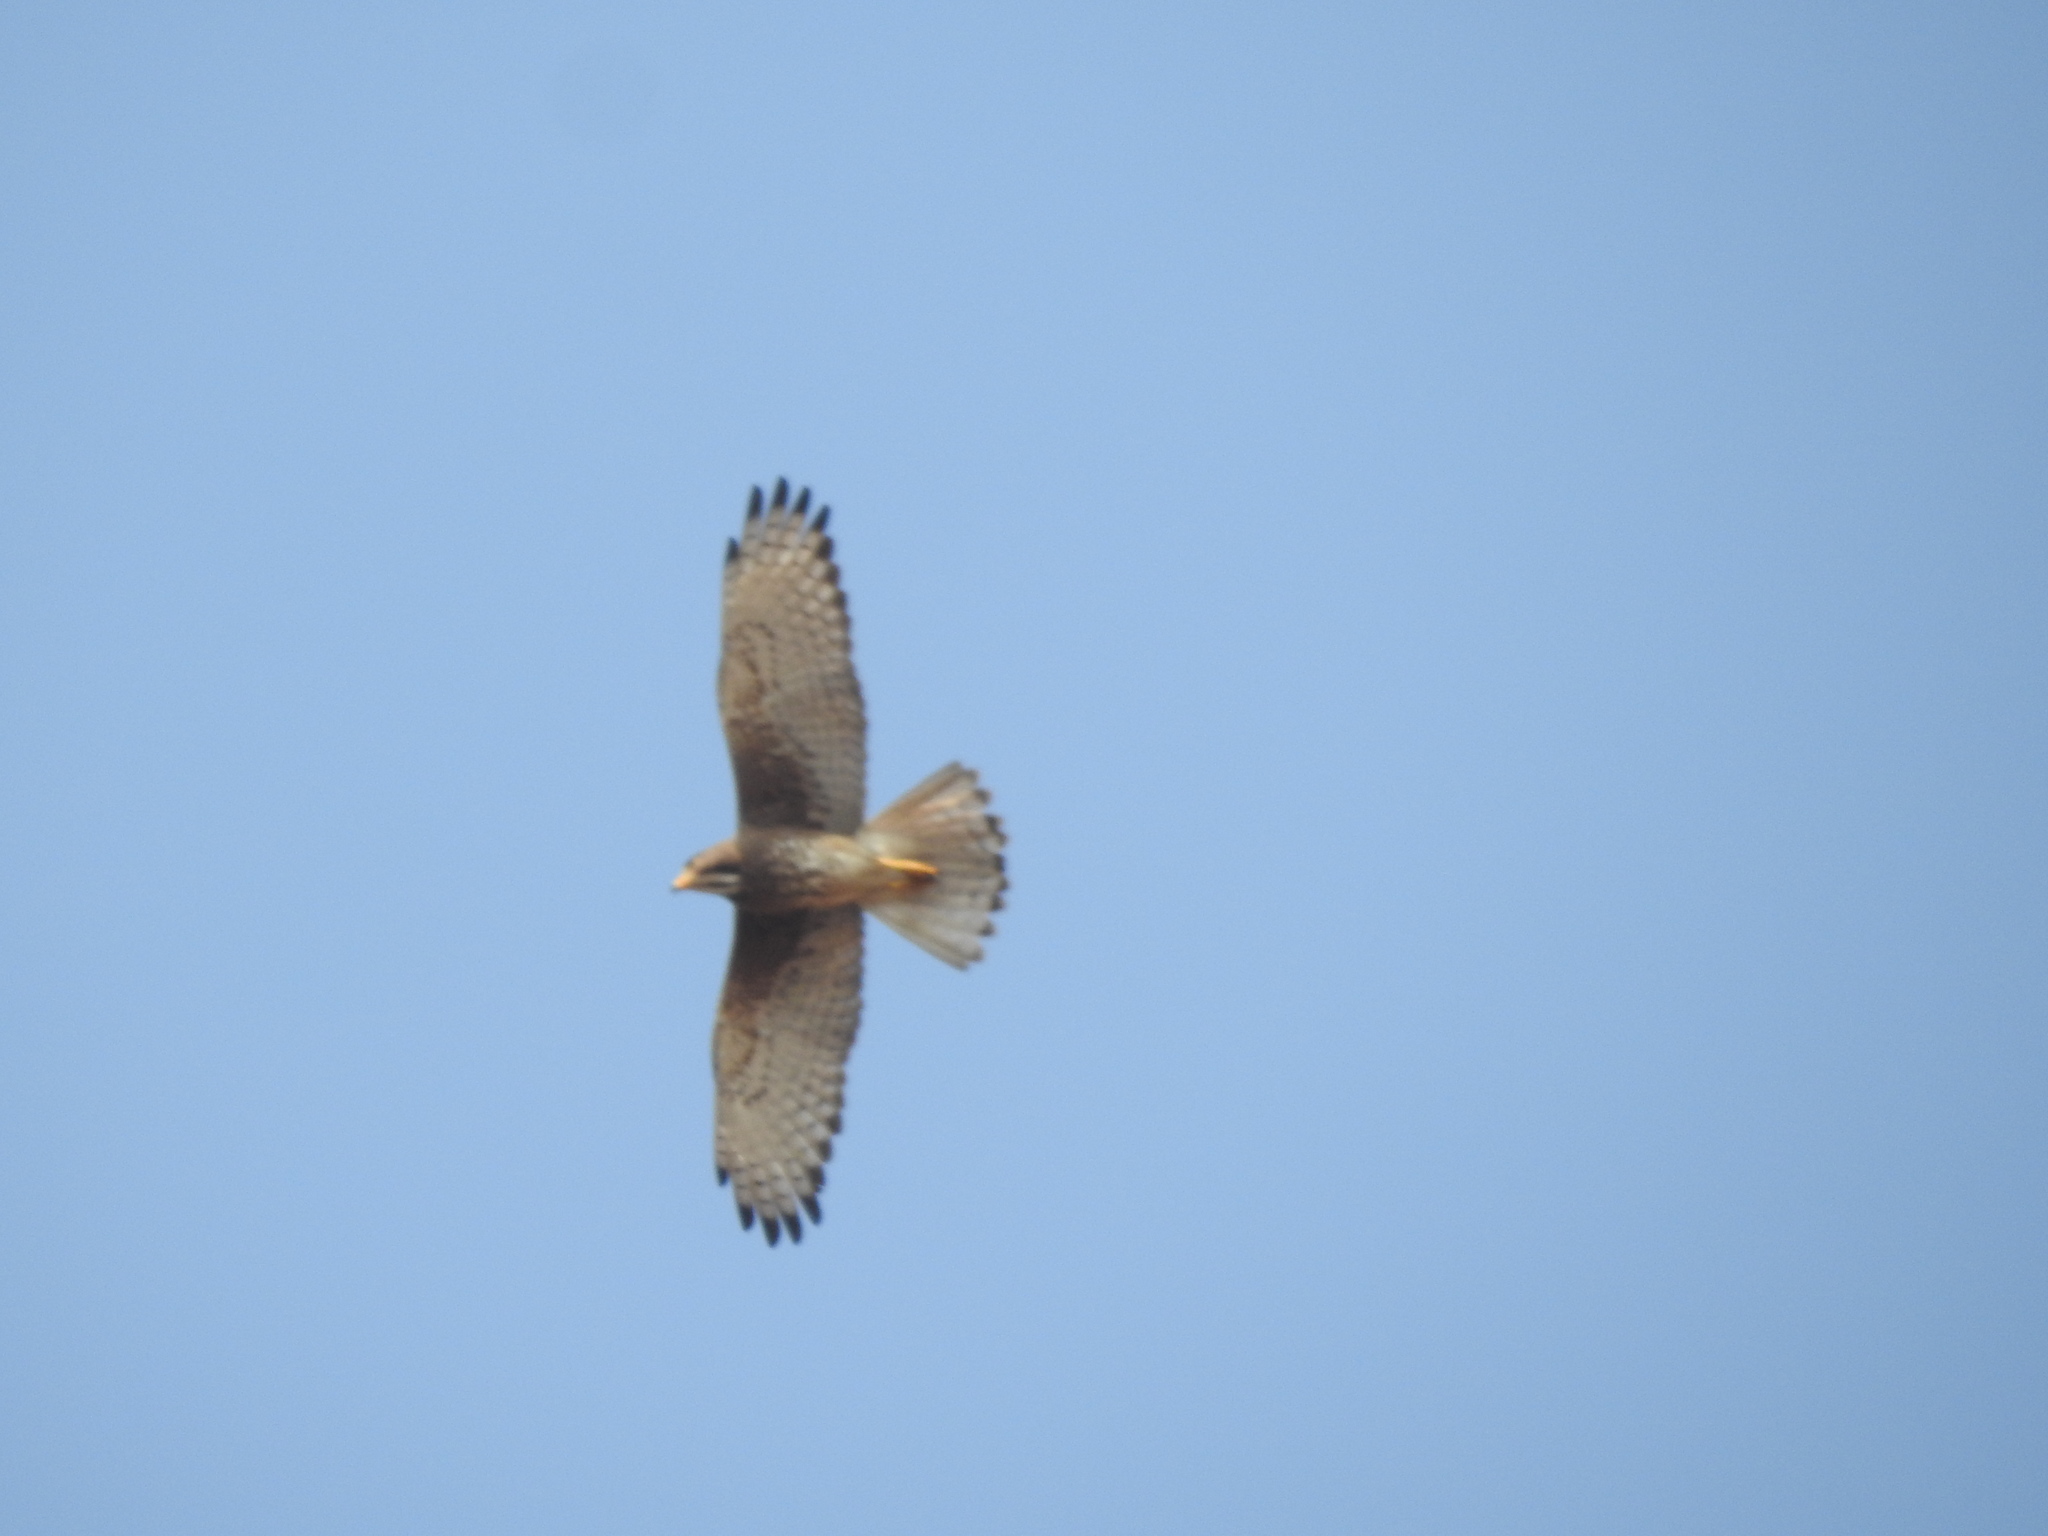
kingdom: Animalia
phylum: Chordata
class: Aves
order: Accipitriformes
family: Accipitridae
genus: Butastur
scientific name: Butastur teesa
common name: White-eyed buzzard
